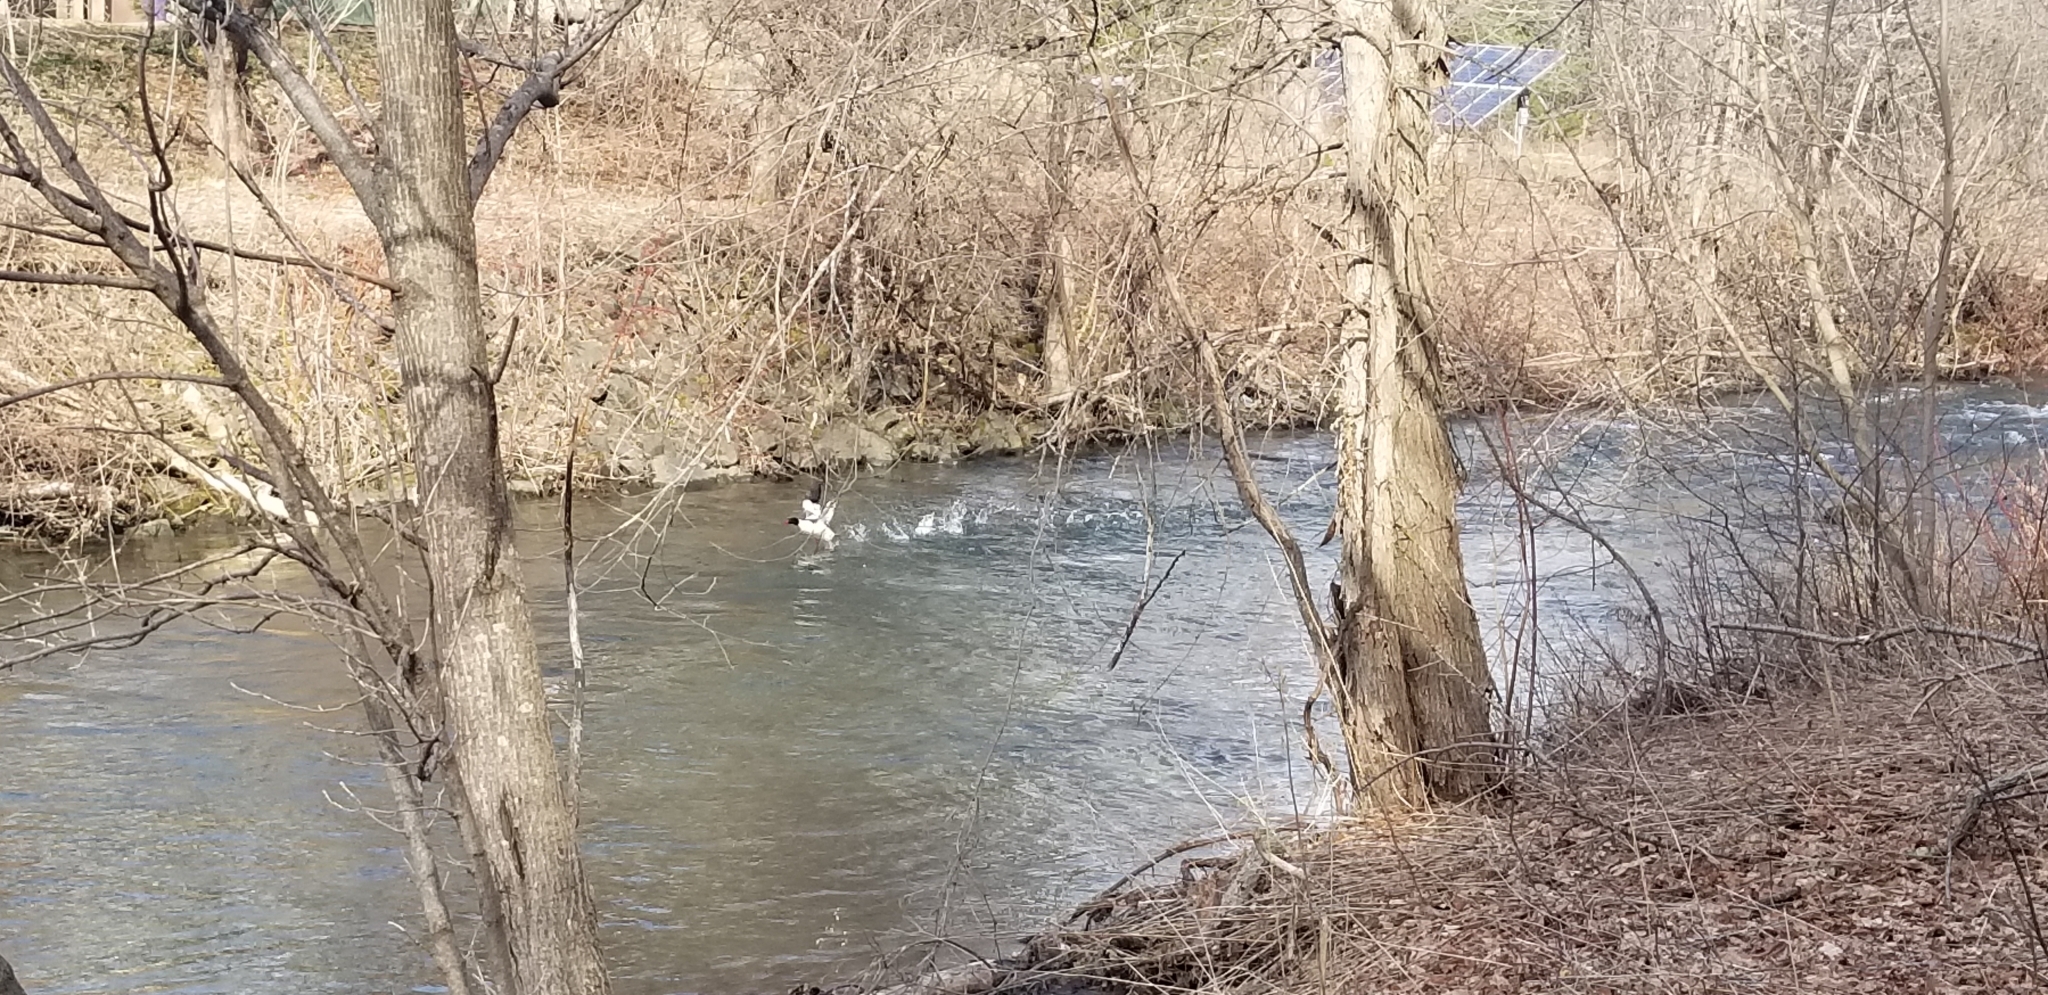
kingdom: Animalia
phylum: Chordata
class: Aves
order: Anseriformes
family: Anatidae
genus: Mergus
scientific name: Mergus merganser
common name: Common merganser
